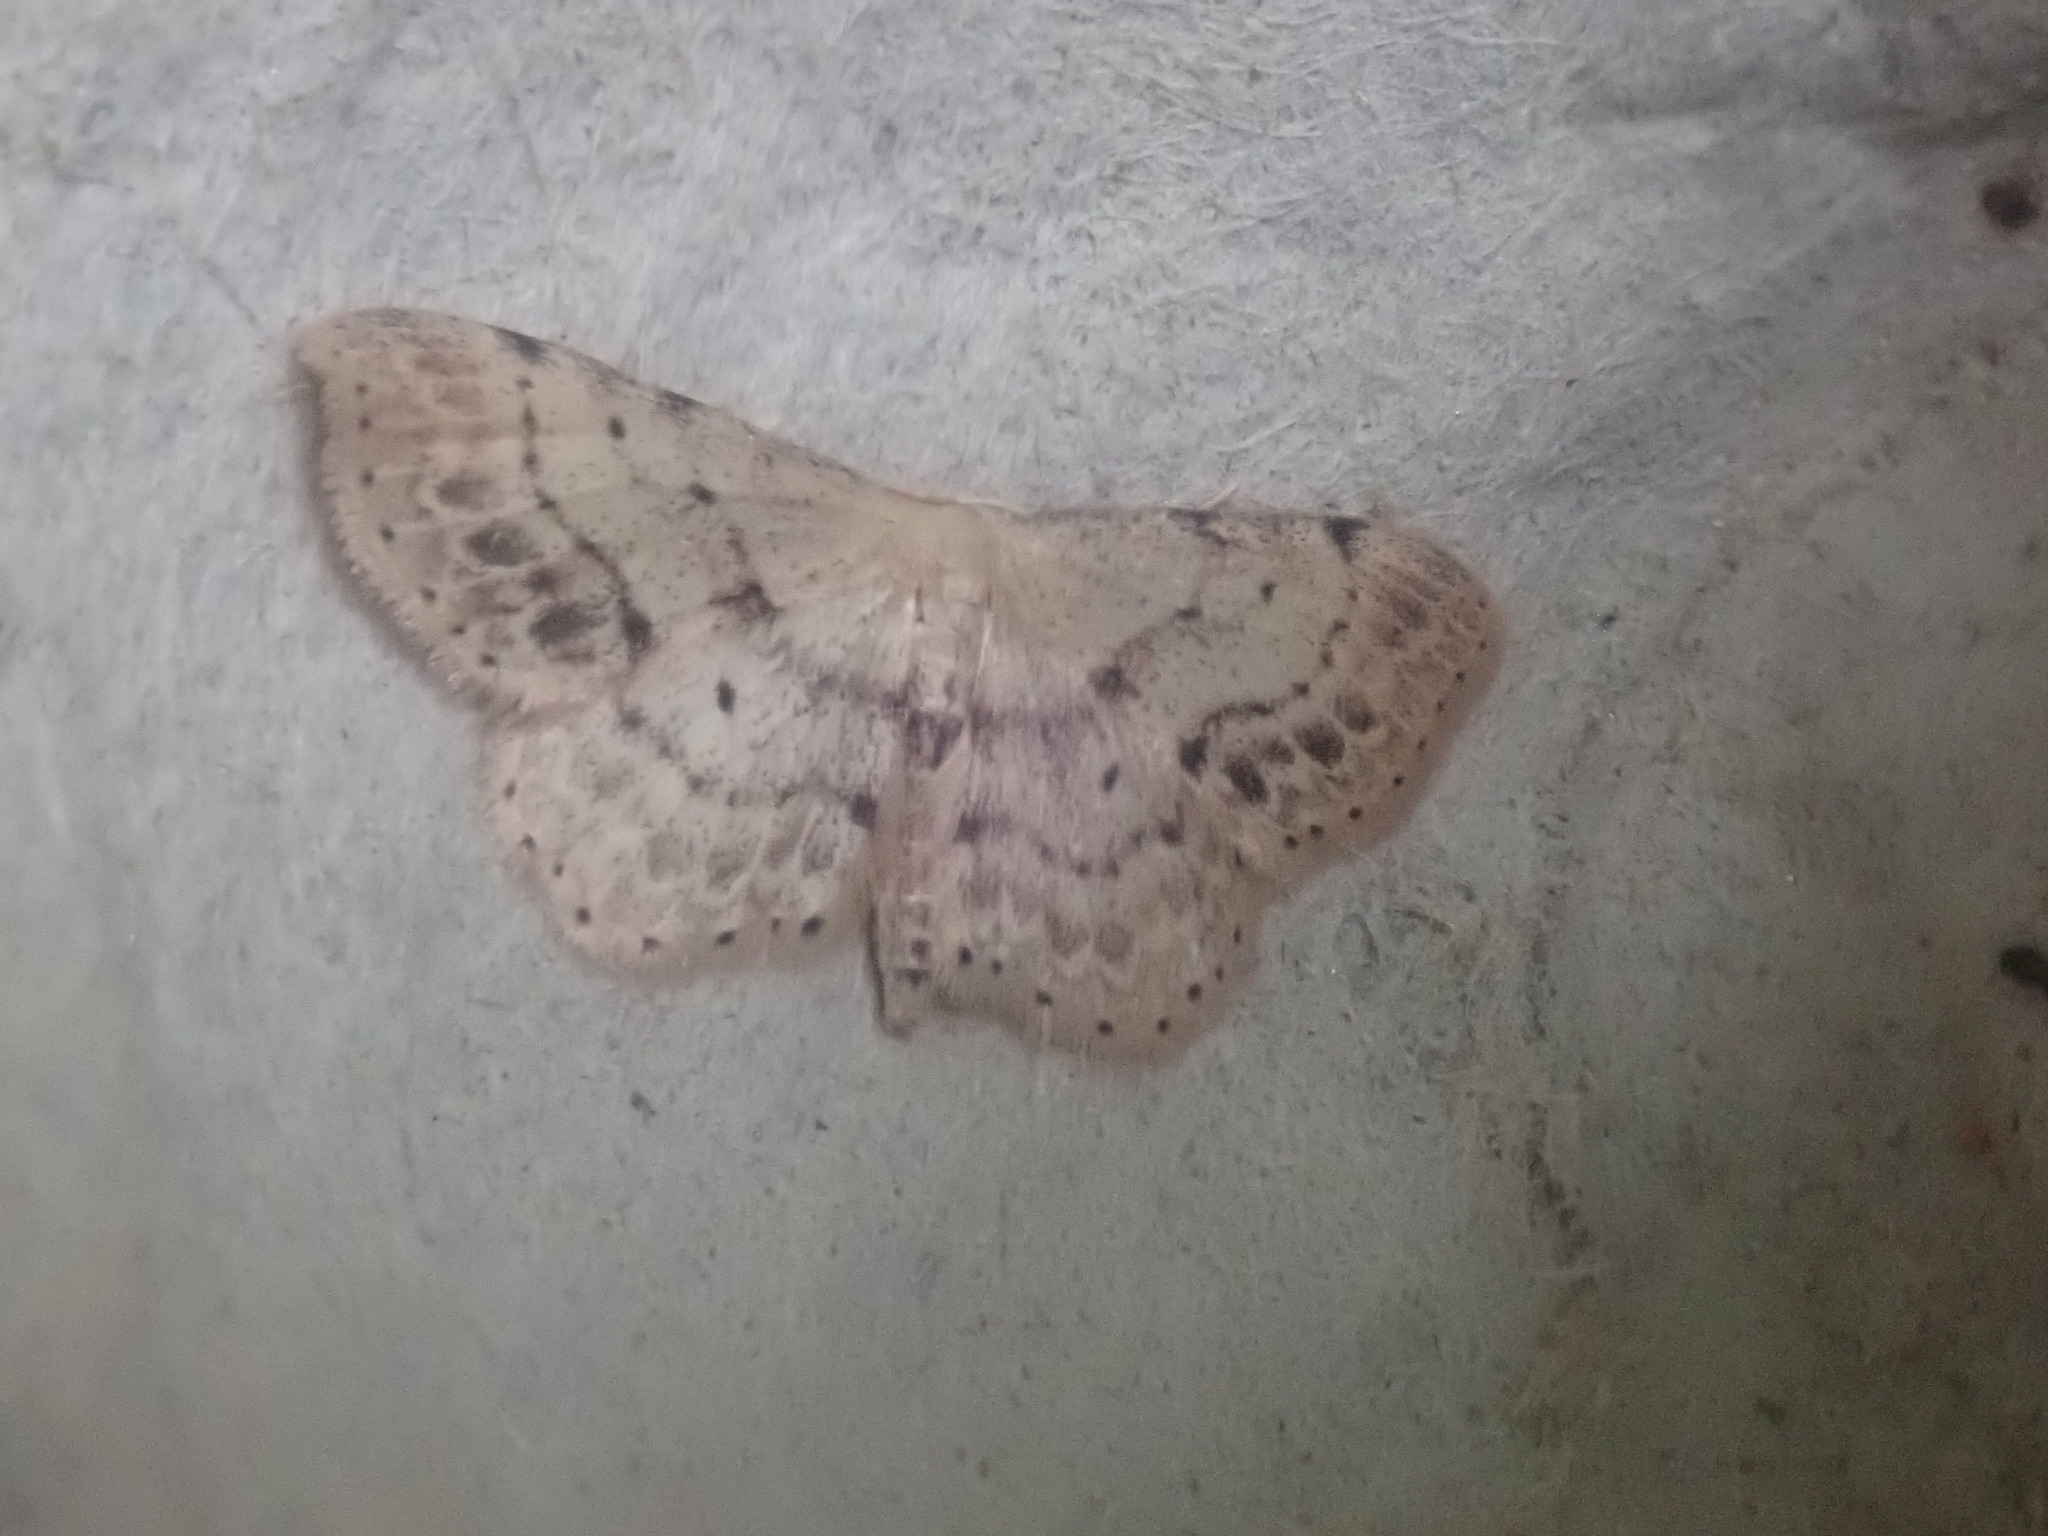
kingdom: Animalia
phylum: Arthropoda
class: Insecta
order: Lepidoptera
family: Geometridae
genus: Idaea
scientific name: Idaea dimidiata
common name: Single-dotted wave
